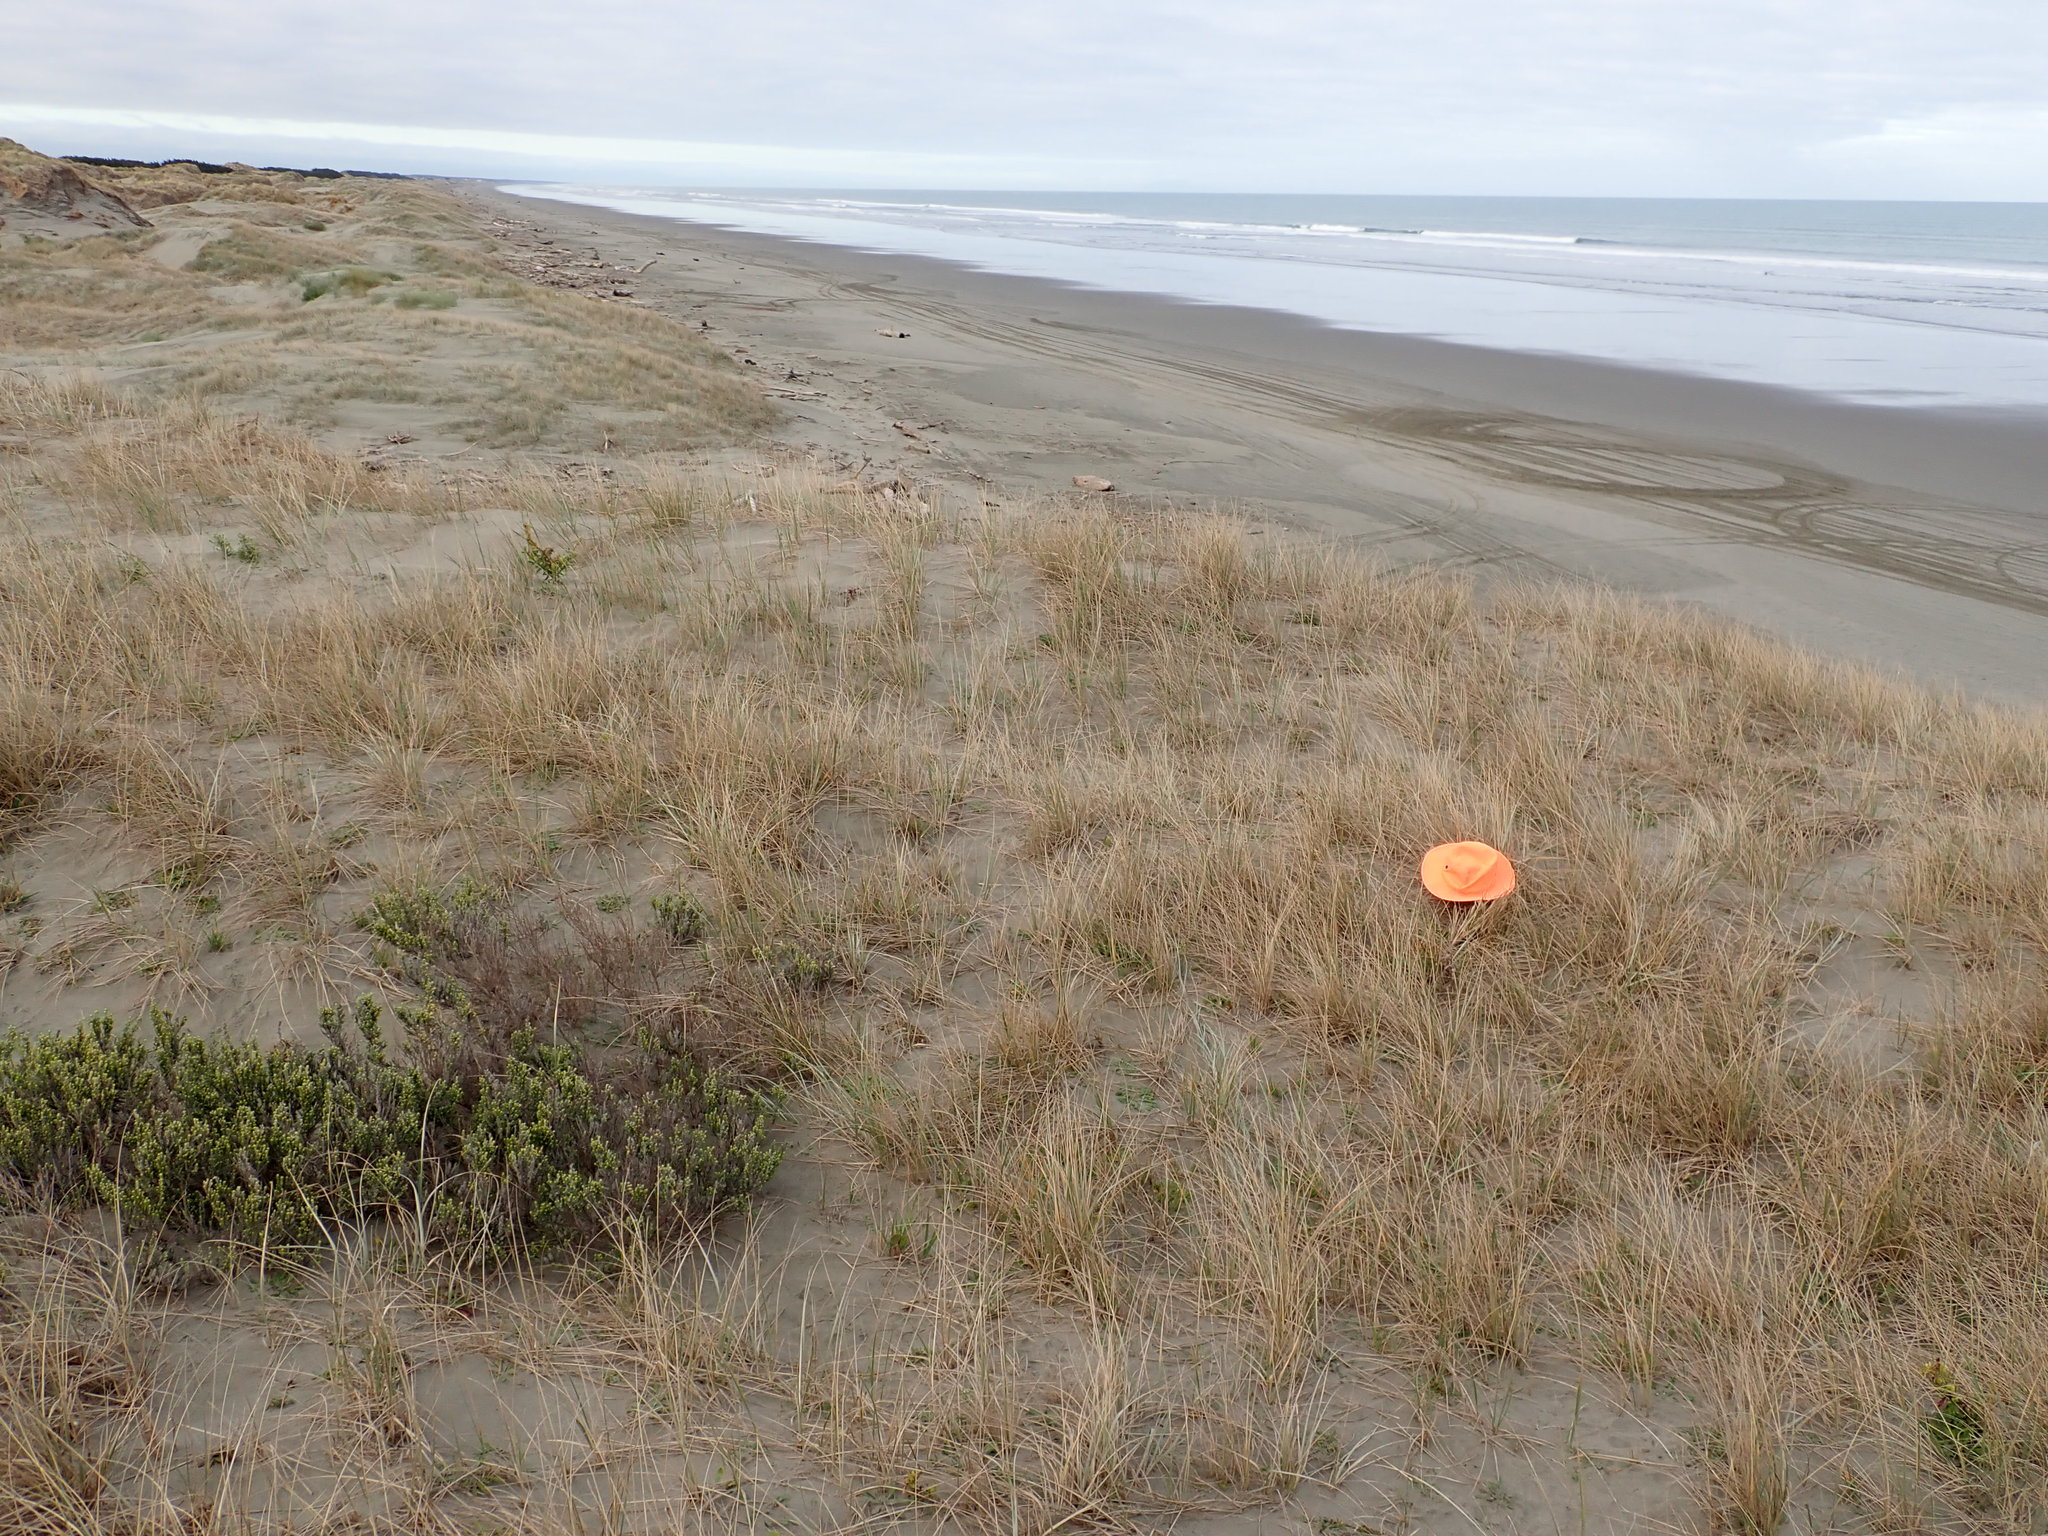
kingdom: Animalia
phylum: Arthropoda
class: Arachnida
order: Araneae
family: Theridiidae
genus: Latrodectus
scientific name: Latrodectus katipo
